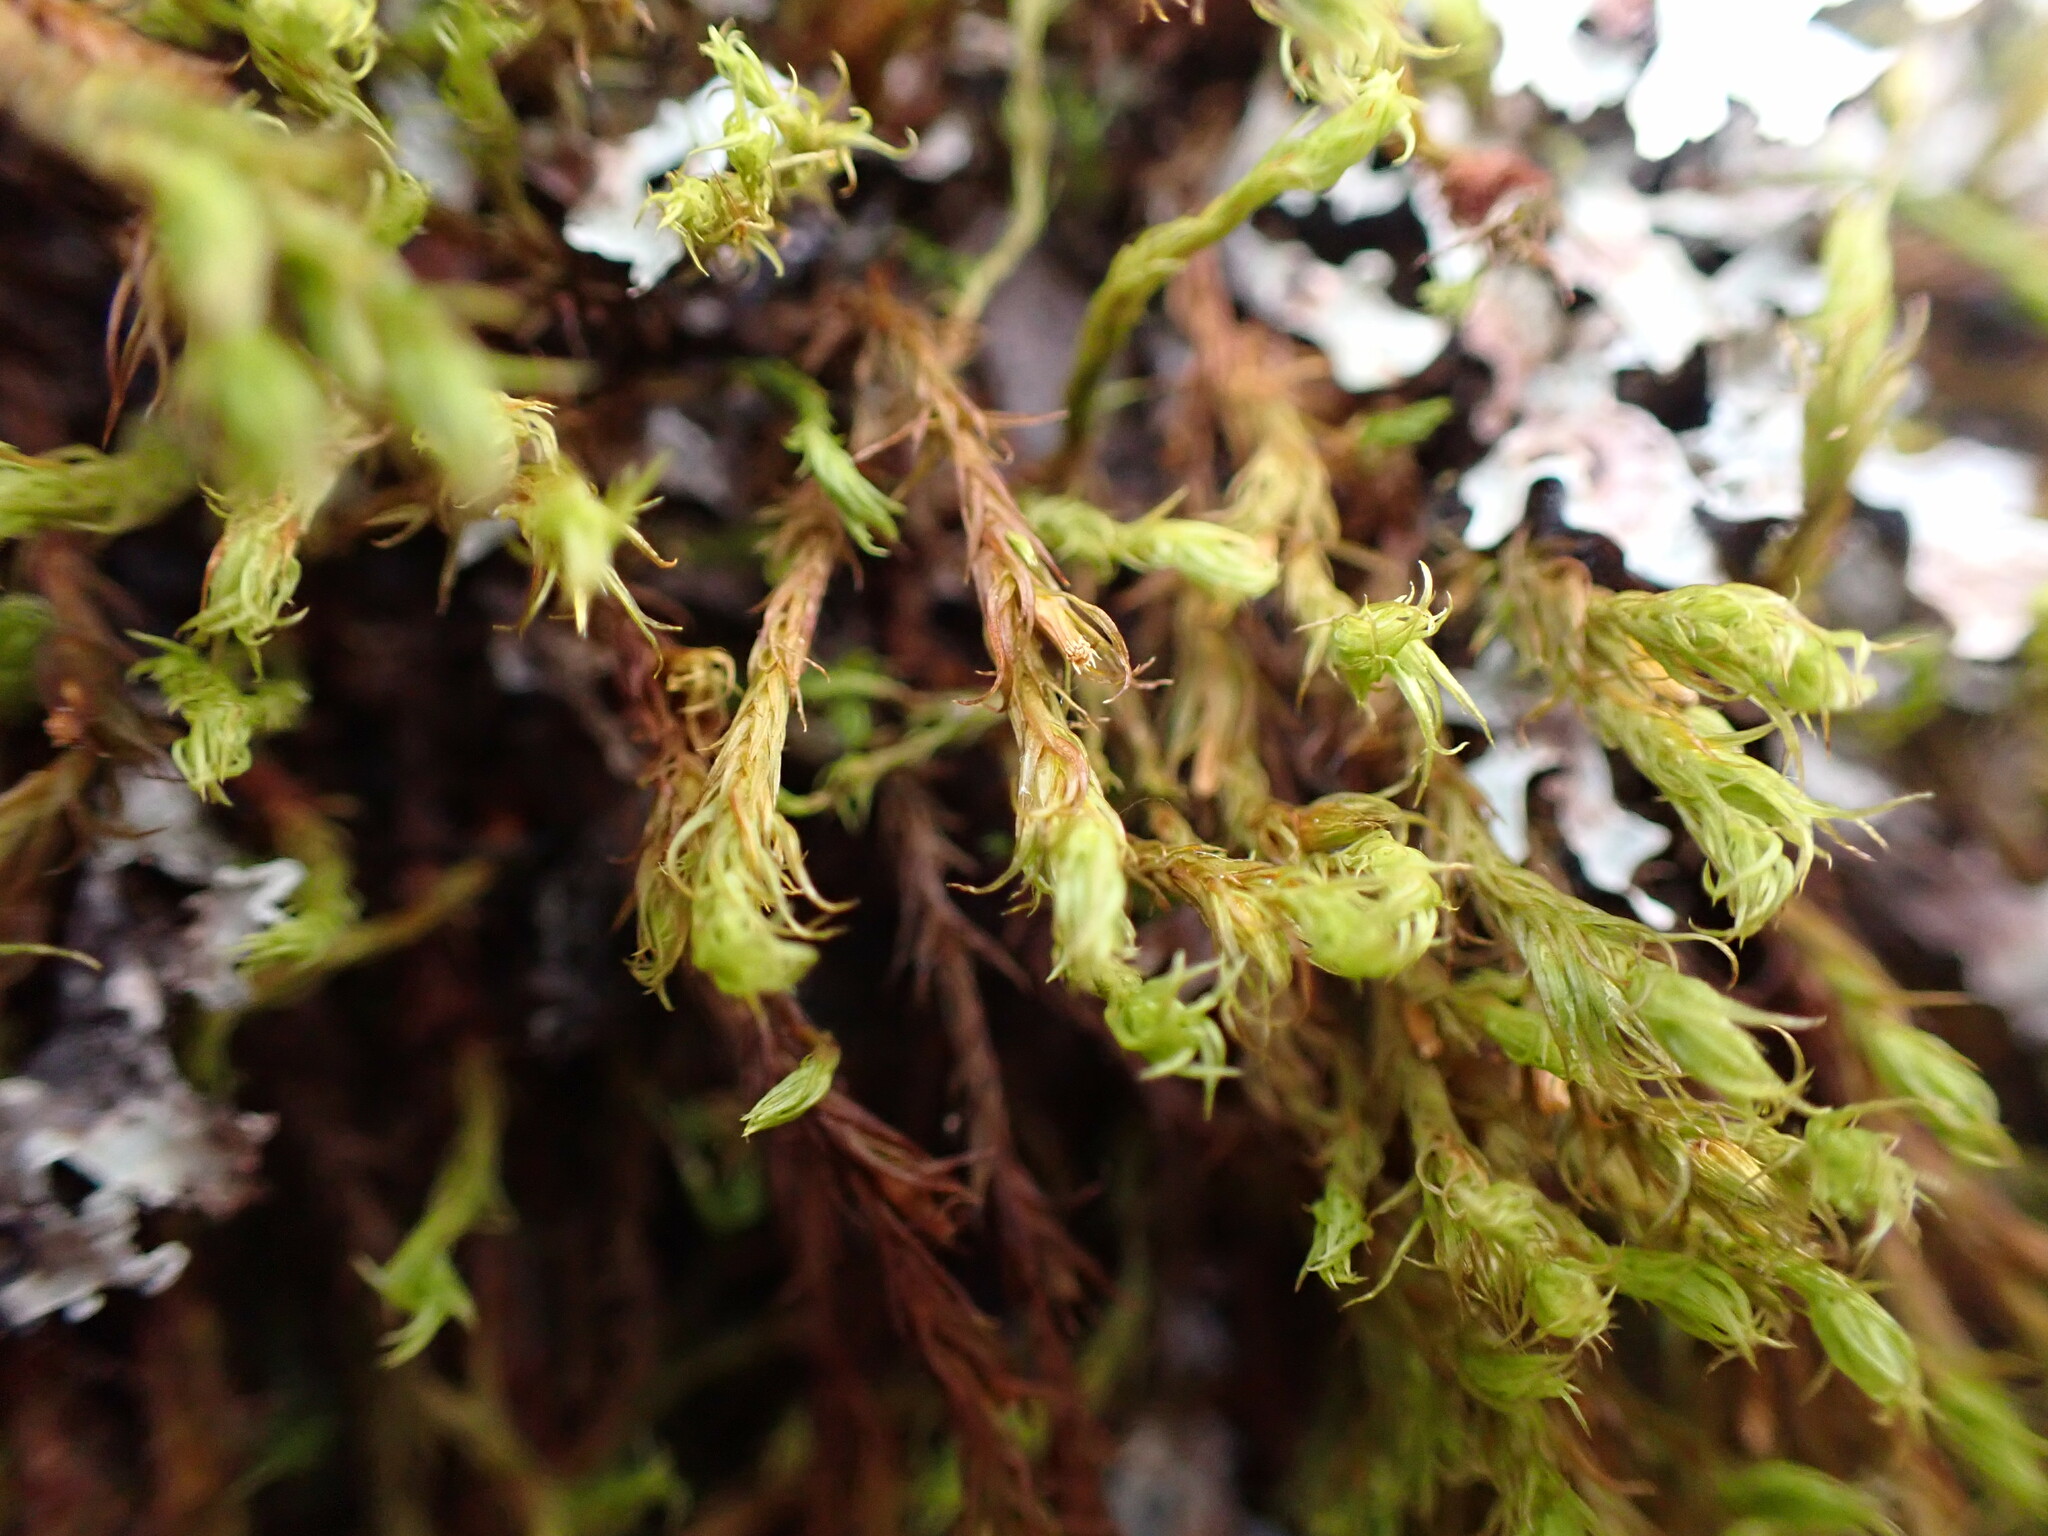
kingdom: Plantae
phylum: Bryophyta
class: Bryopsida
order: Orthotrichales
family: Orthotrichaceae
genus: Pulvigera
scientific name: Pulvigera papillosa
